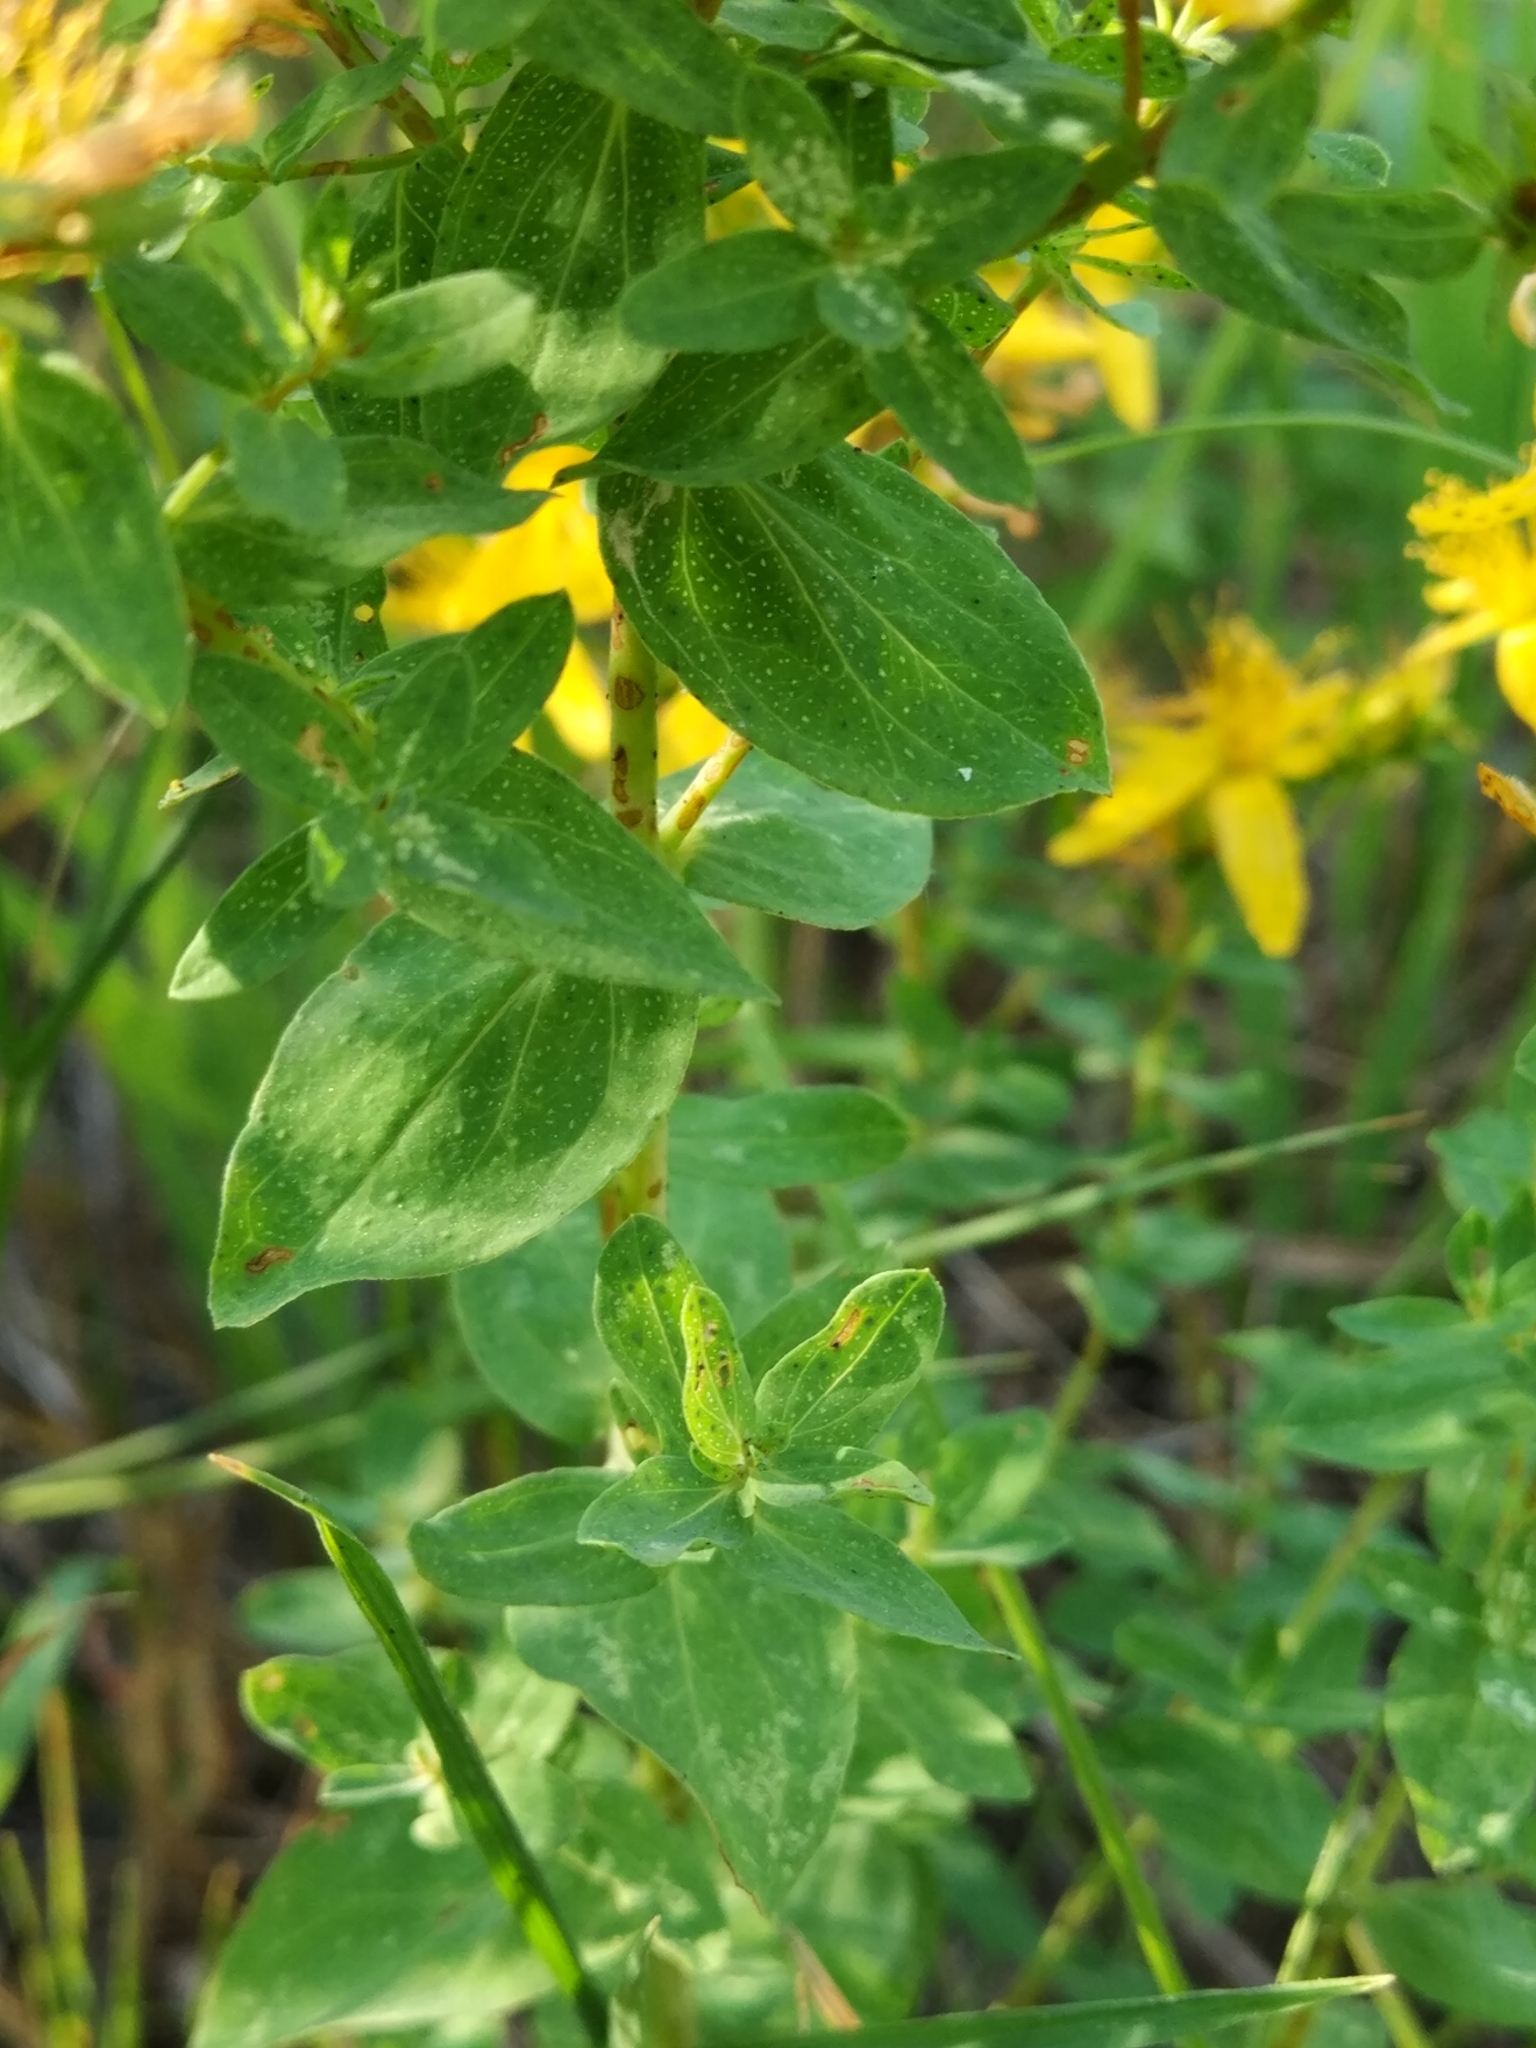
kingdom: Plantae
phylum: Tracheophyta
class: Magnoliopsida
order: Malpighiales
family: Hypericaceae
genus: Hypericum
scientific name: Hypericum perforatum
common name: Common st. johnswort
